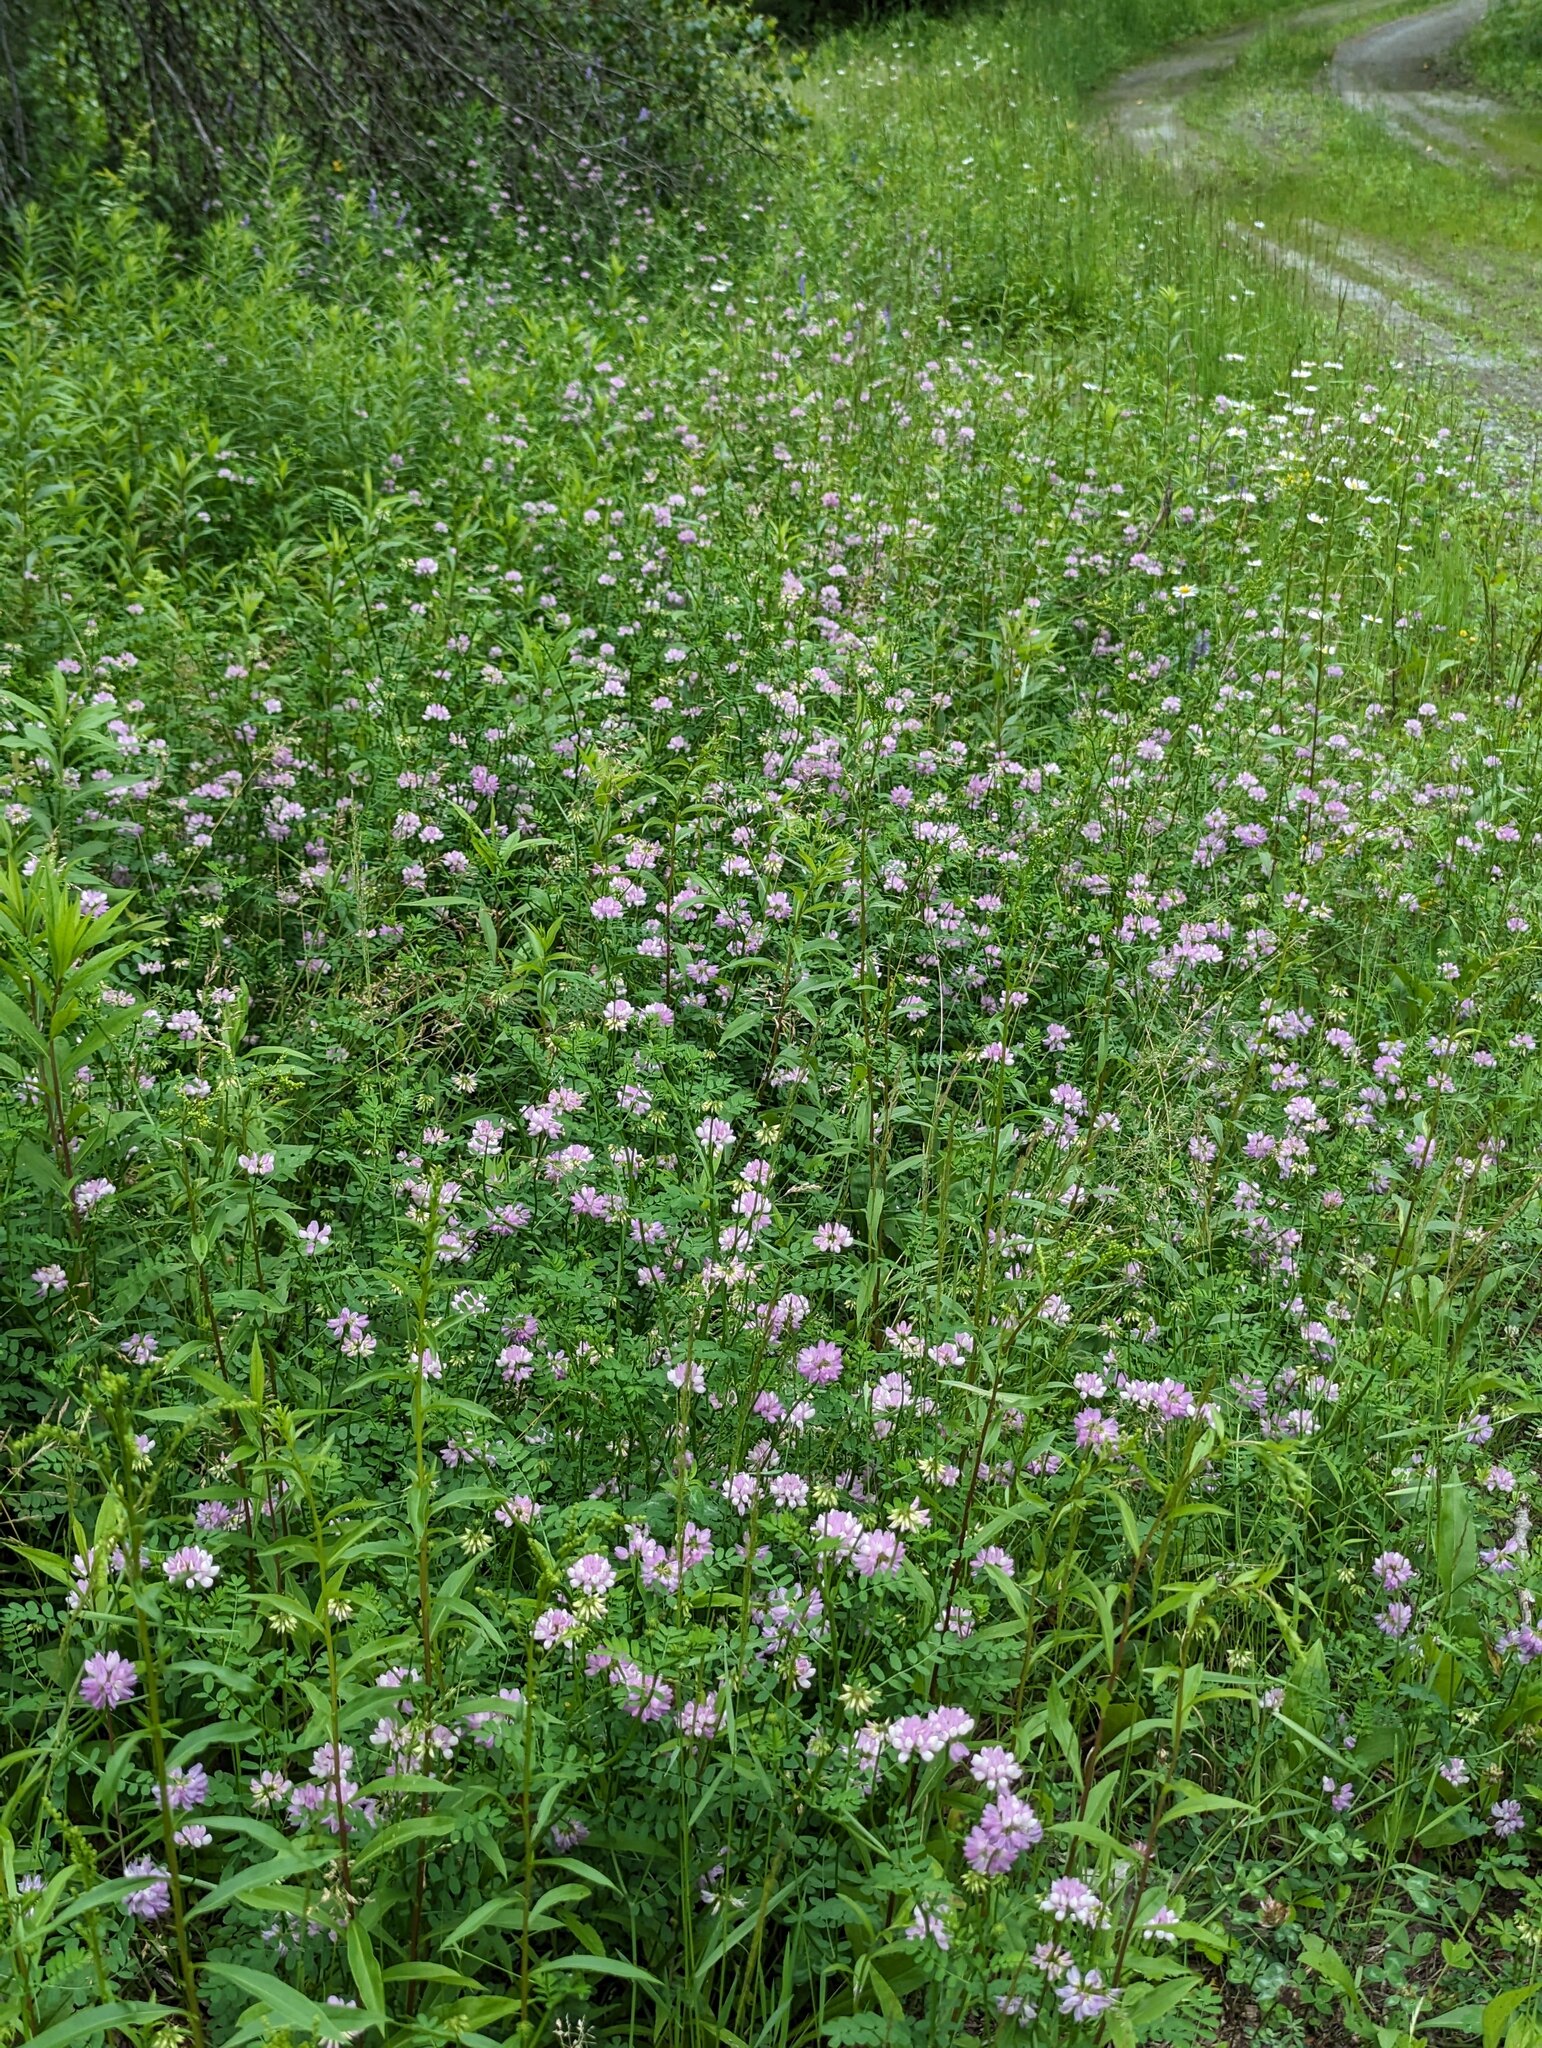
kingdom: Plantae
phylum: Tracheophyta
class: Magnoliopsida
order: Fabales
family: Fabaceae
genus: Coronilla
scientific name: Coronilla varia
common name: Crownvetch
